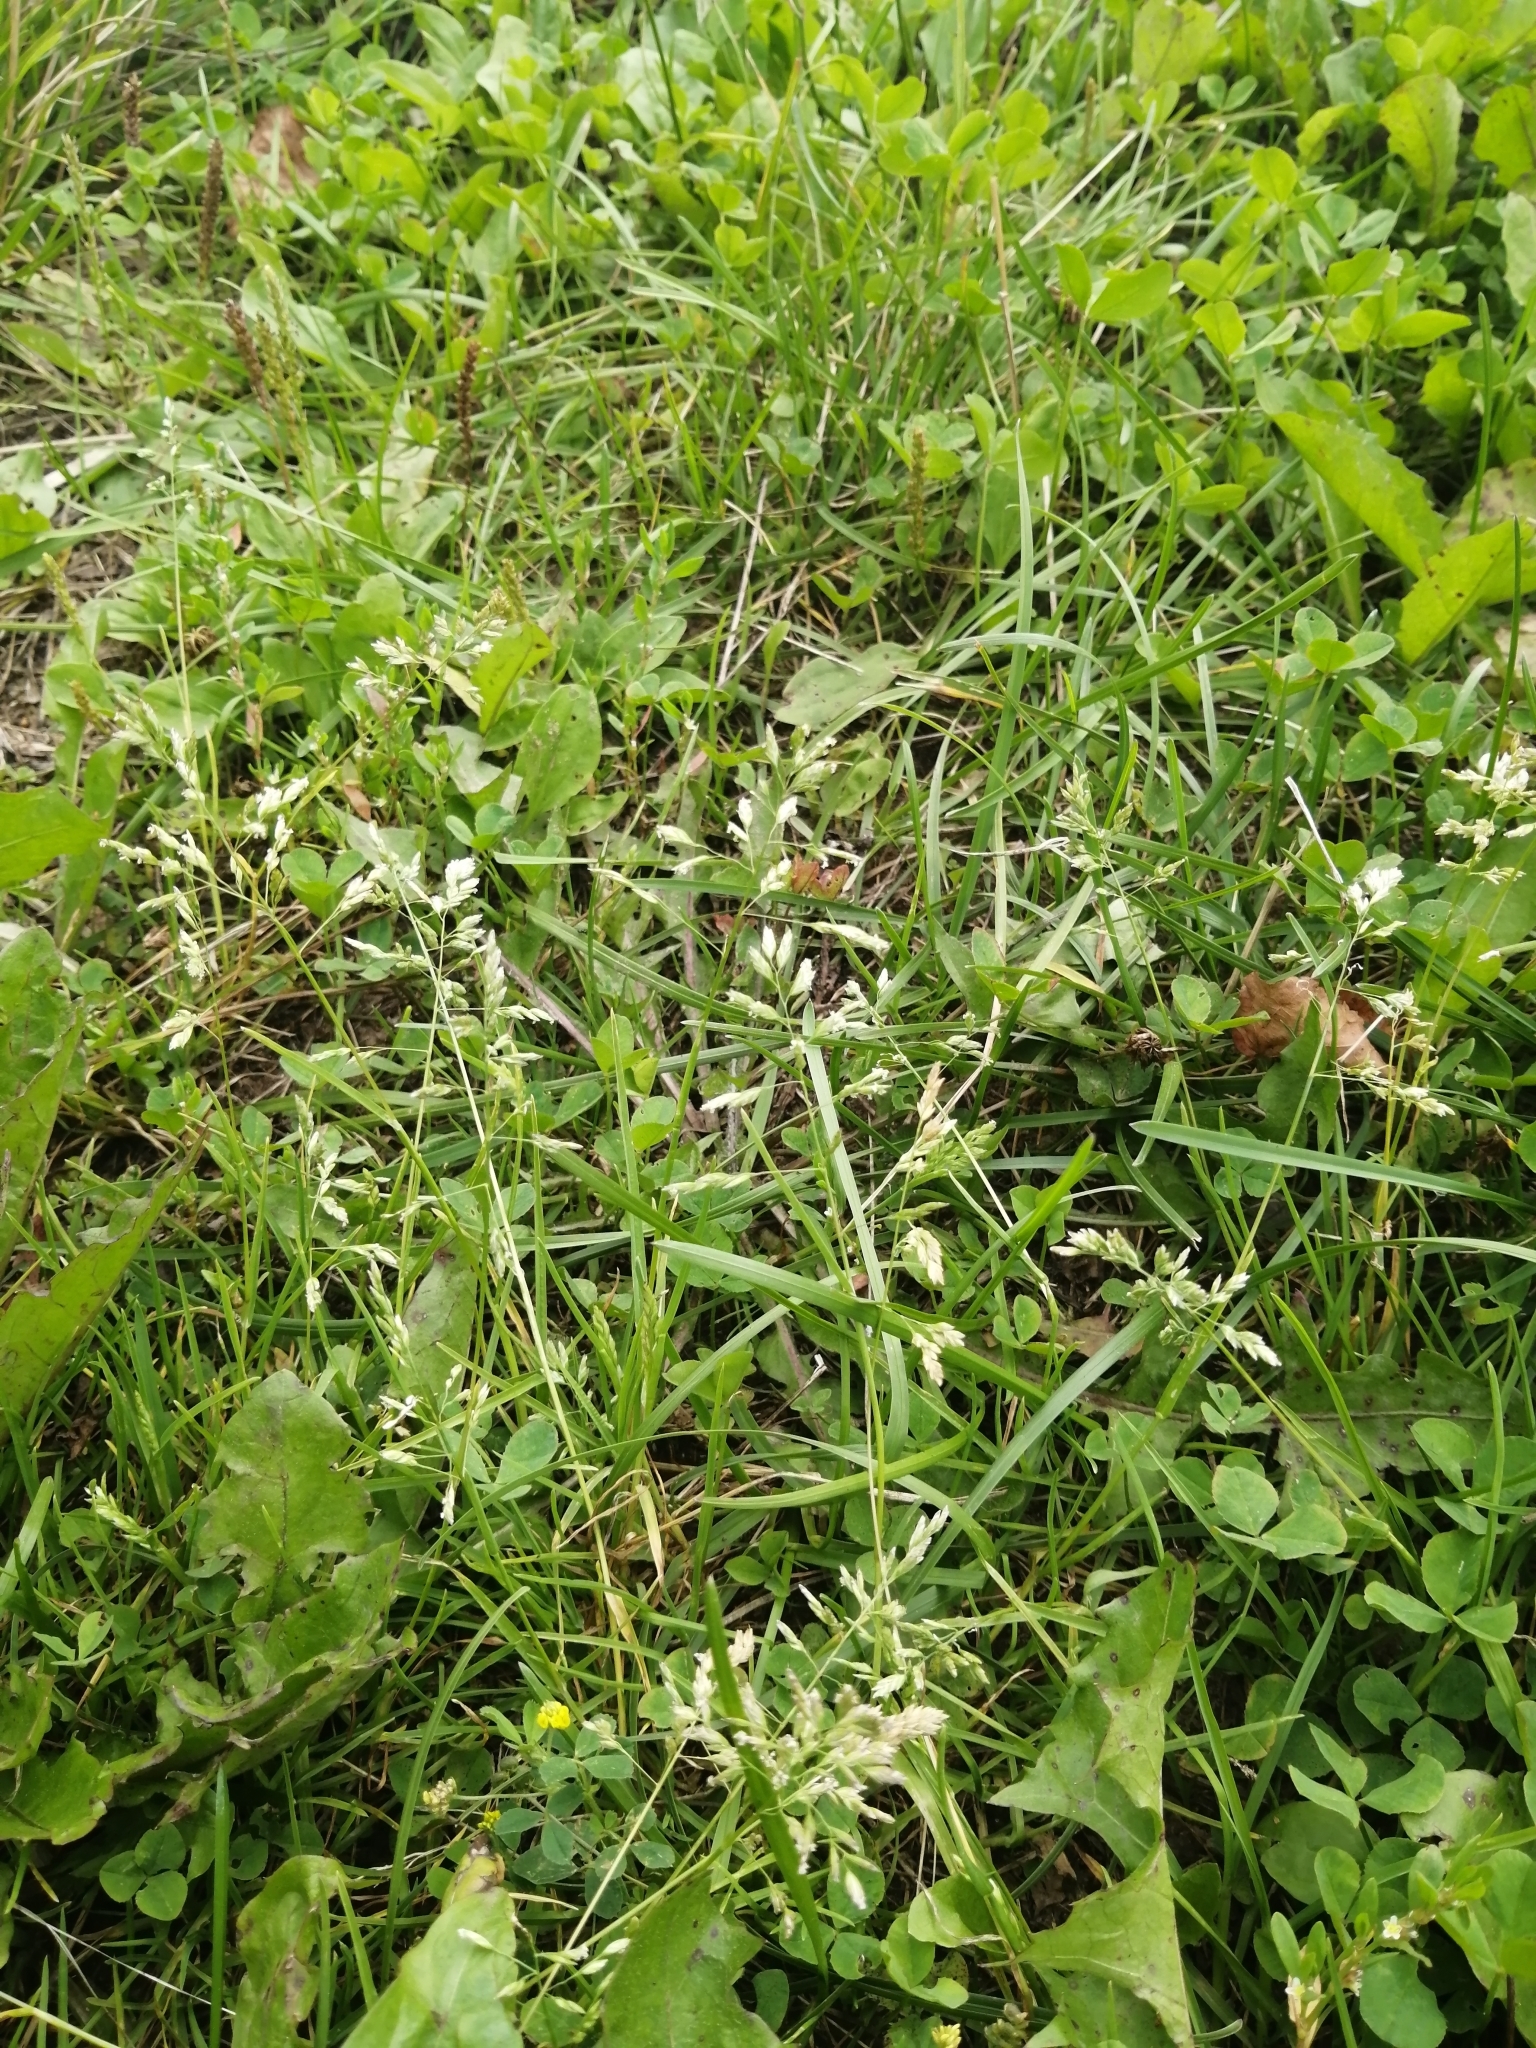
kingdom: Plantae
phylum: Tracheophyta
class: Liliopsida
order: Poales
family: Poaceae
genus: Poa
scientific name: Poa pratensis
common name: Kentucky bluegrass
